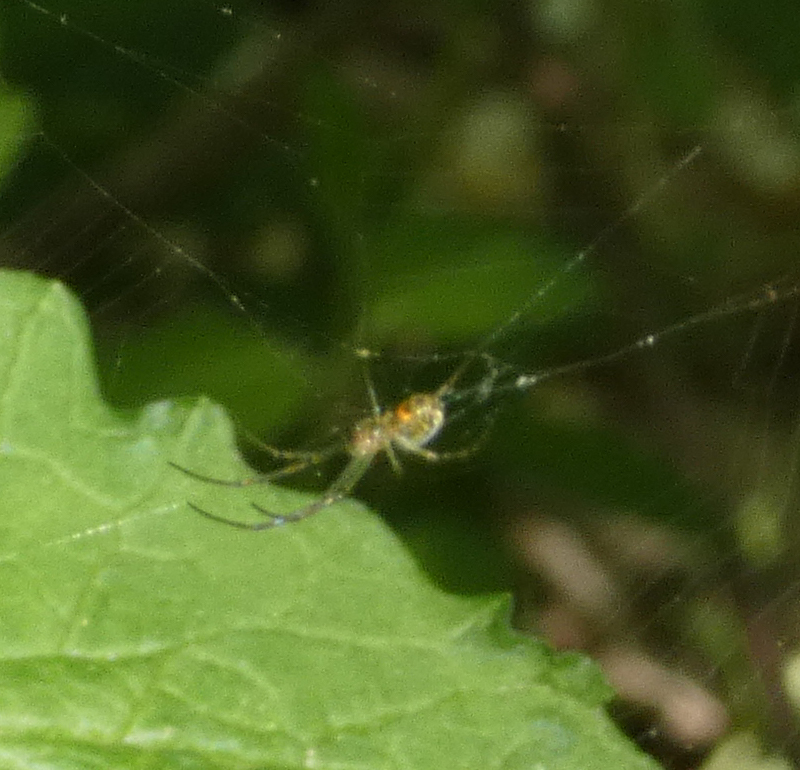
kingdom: Animalia
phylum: Arthropoda
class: Arachnida
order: Araneae
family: Tetragnathidae
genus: Leucauge
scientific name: Leucauge venusta
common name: Longjawed orb weavers
